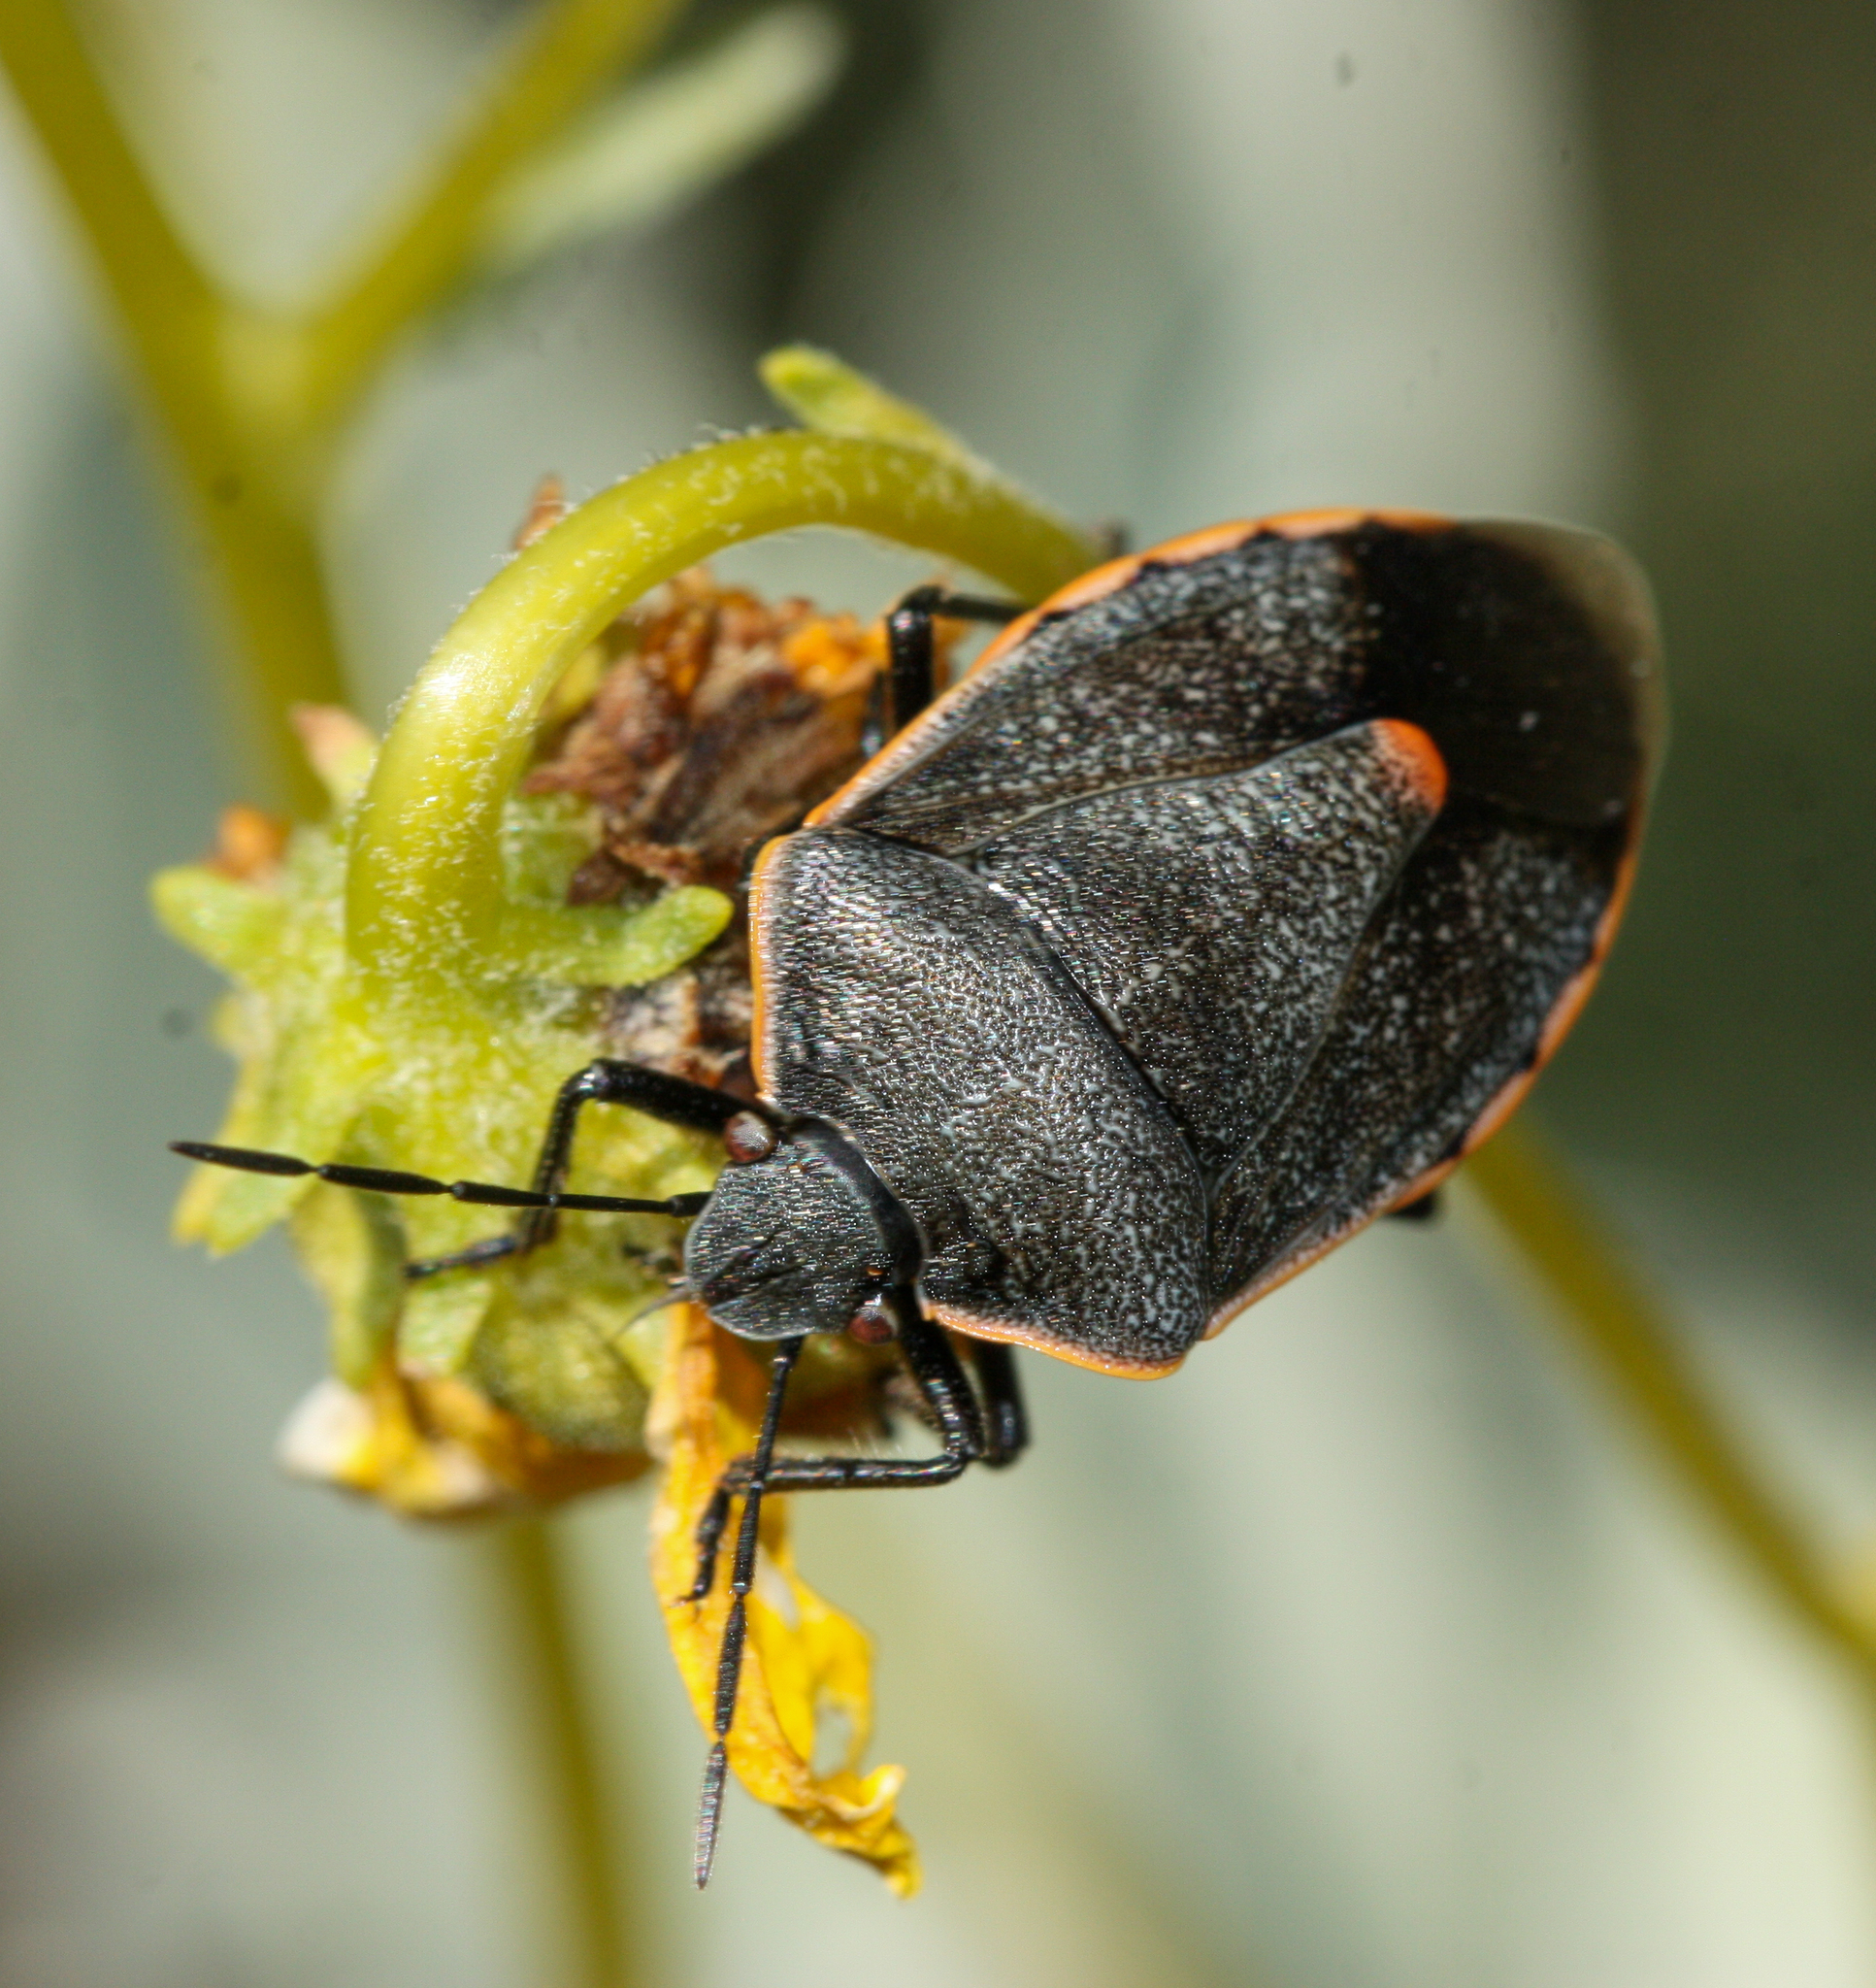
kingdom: Animalia
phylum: Arthropoda
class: Insecta
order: Hemiptera
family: Pentatomidae
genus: Chlorochroa
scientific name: Chlorochroa ligata
